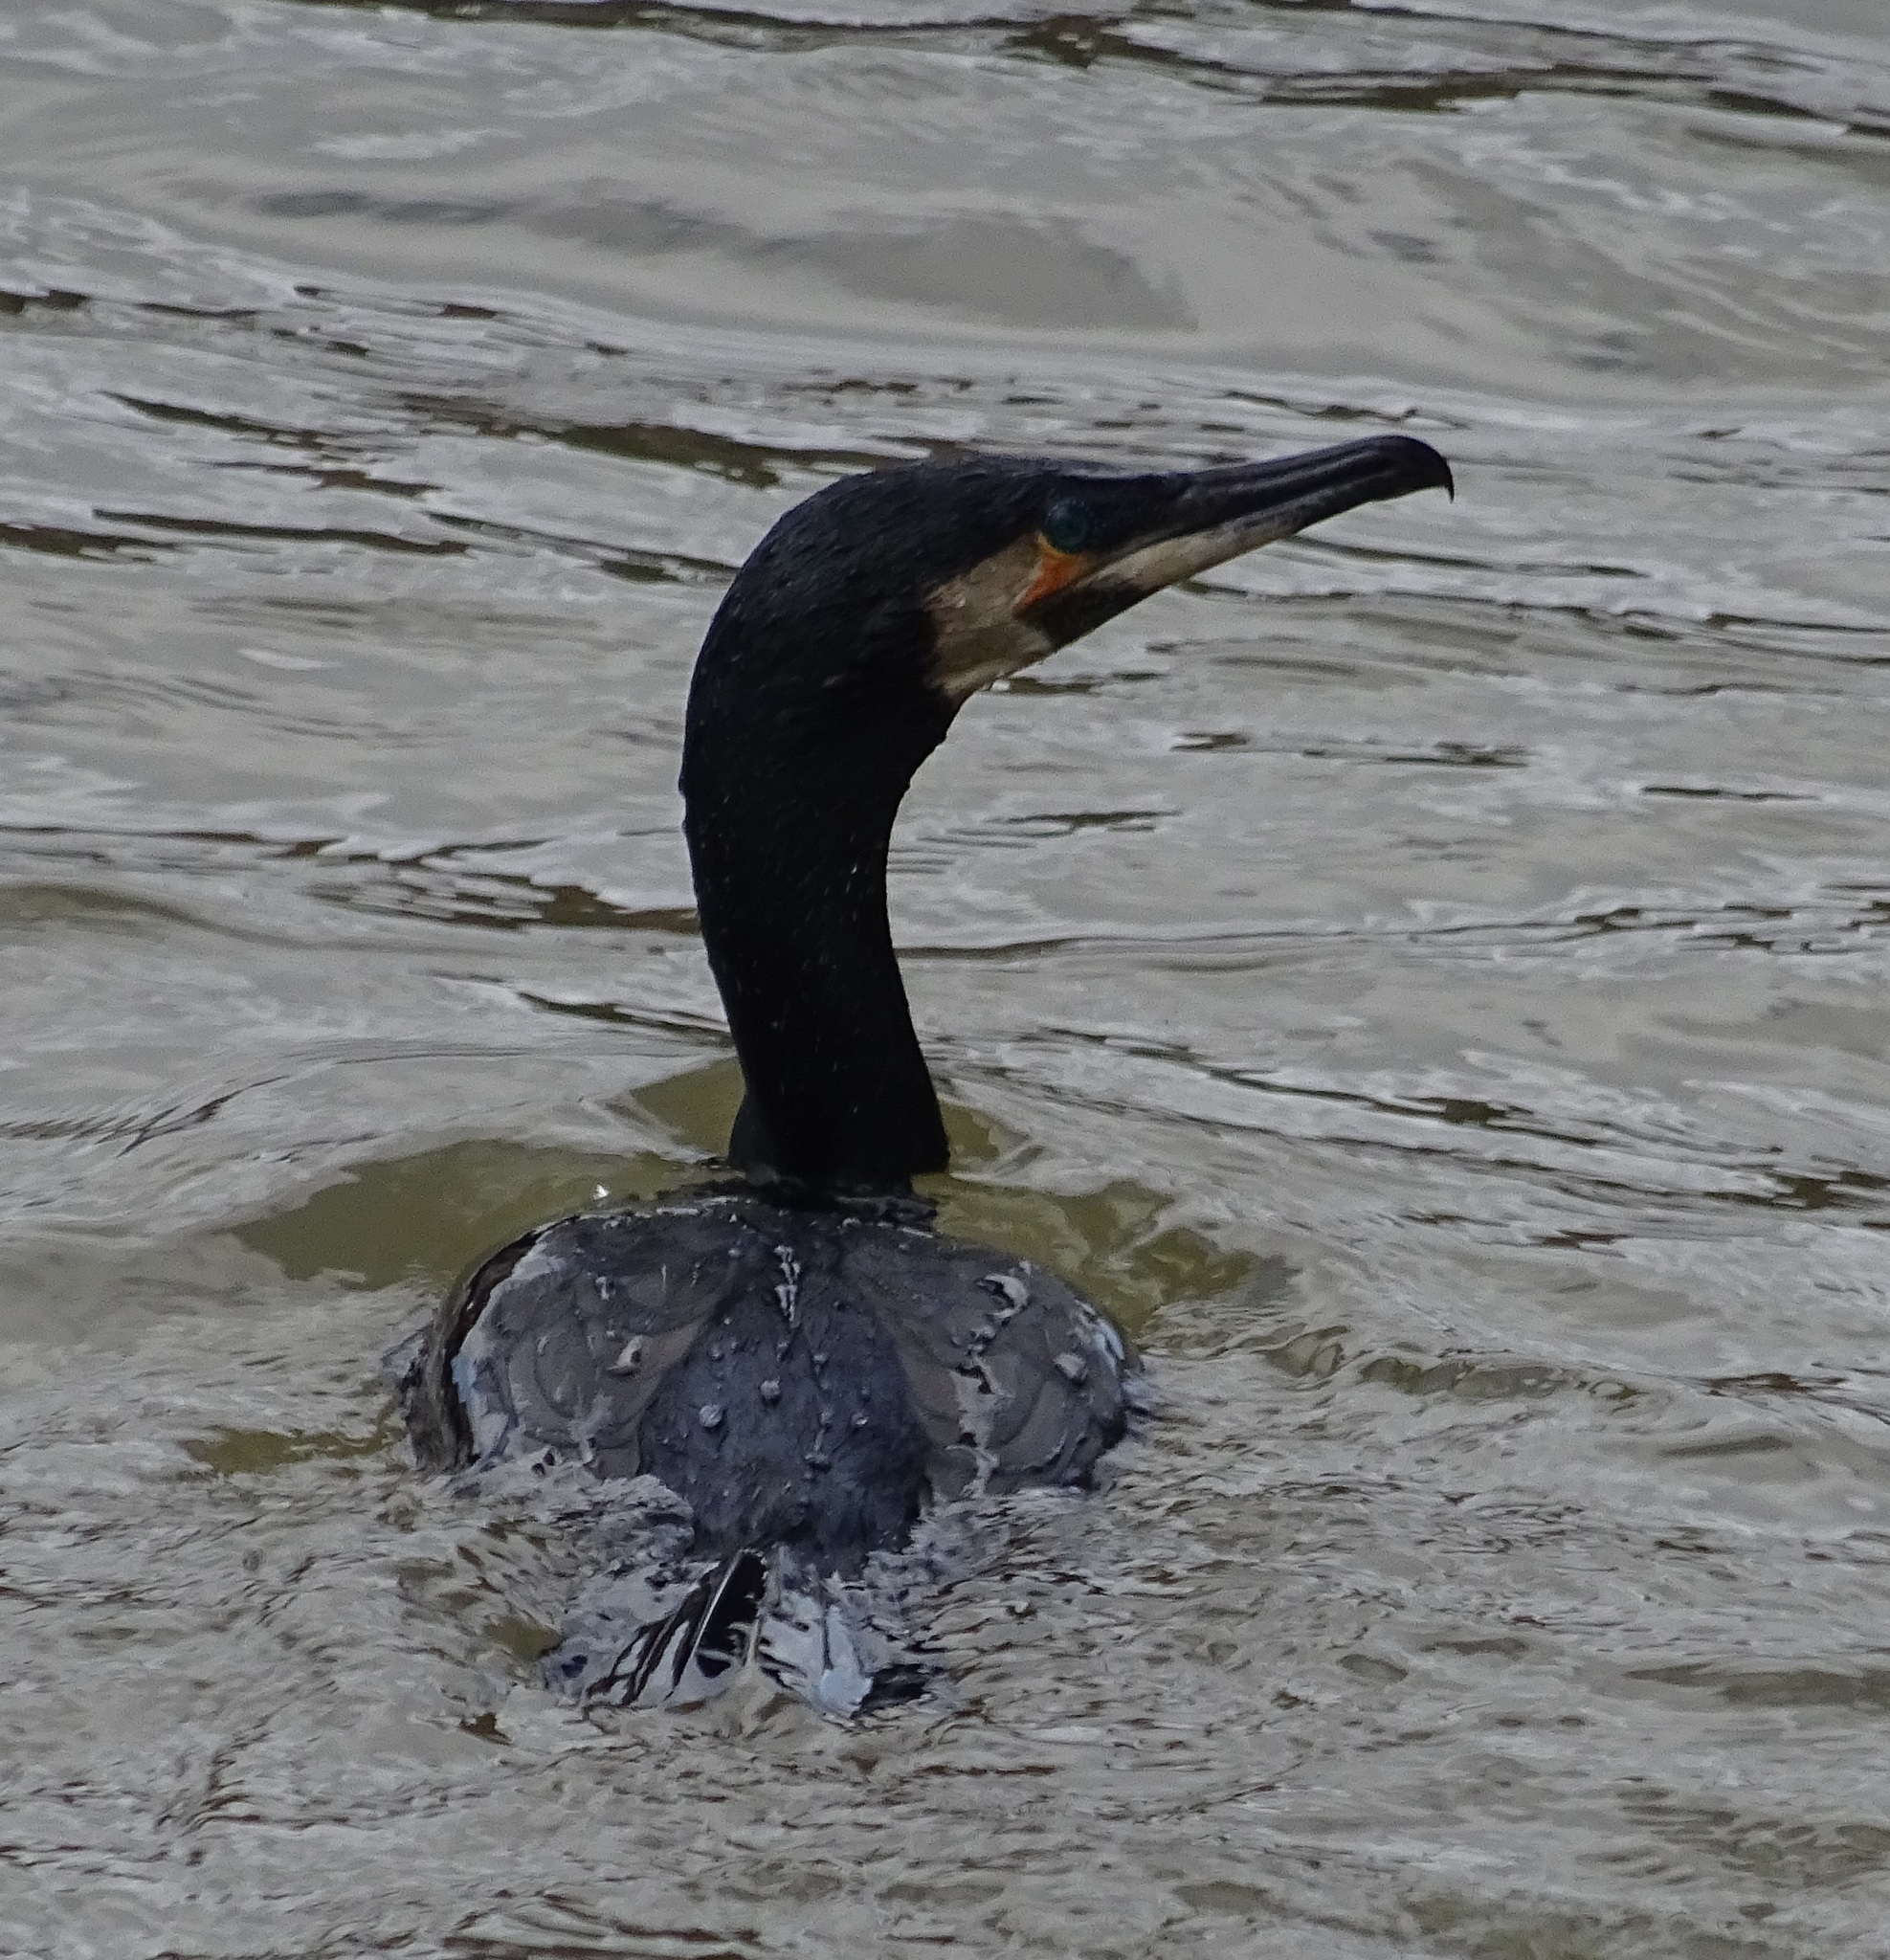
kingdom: Animalia
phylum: Chordata
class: Aves
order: Suliformes
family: Phalacrocoracidae
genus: Phalacrocorax
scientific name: Phalacrocorax carbo
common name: Great cormorant
